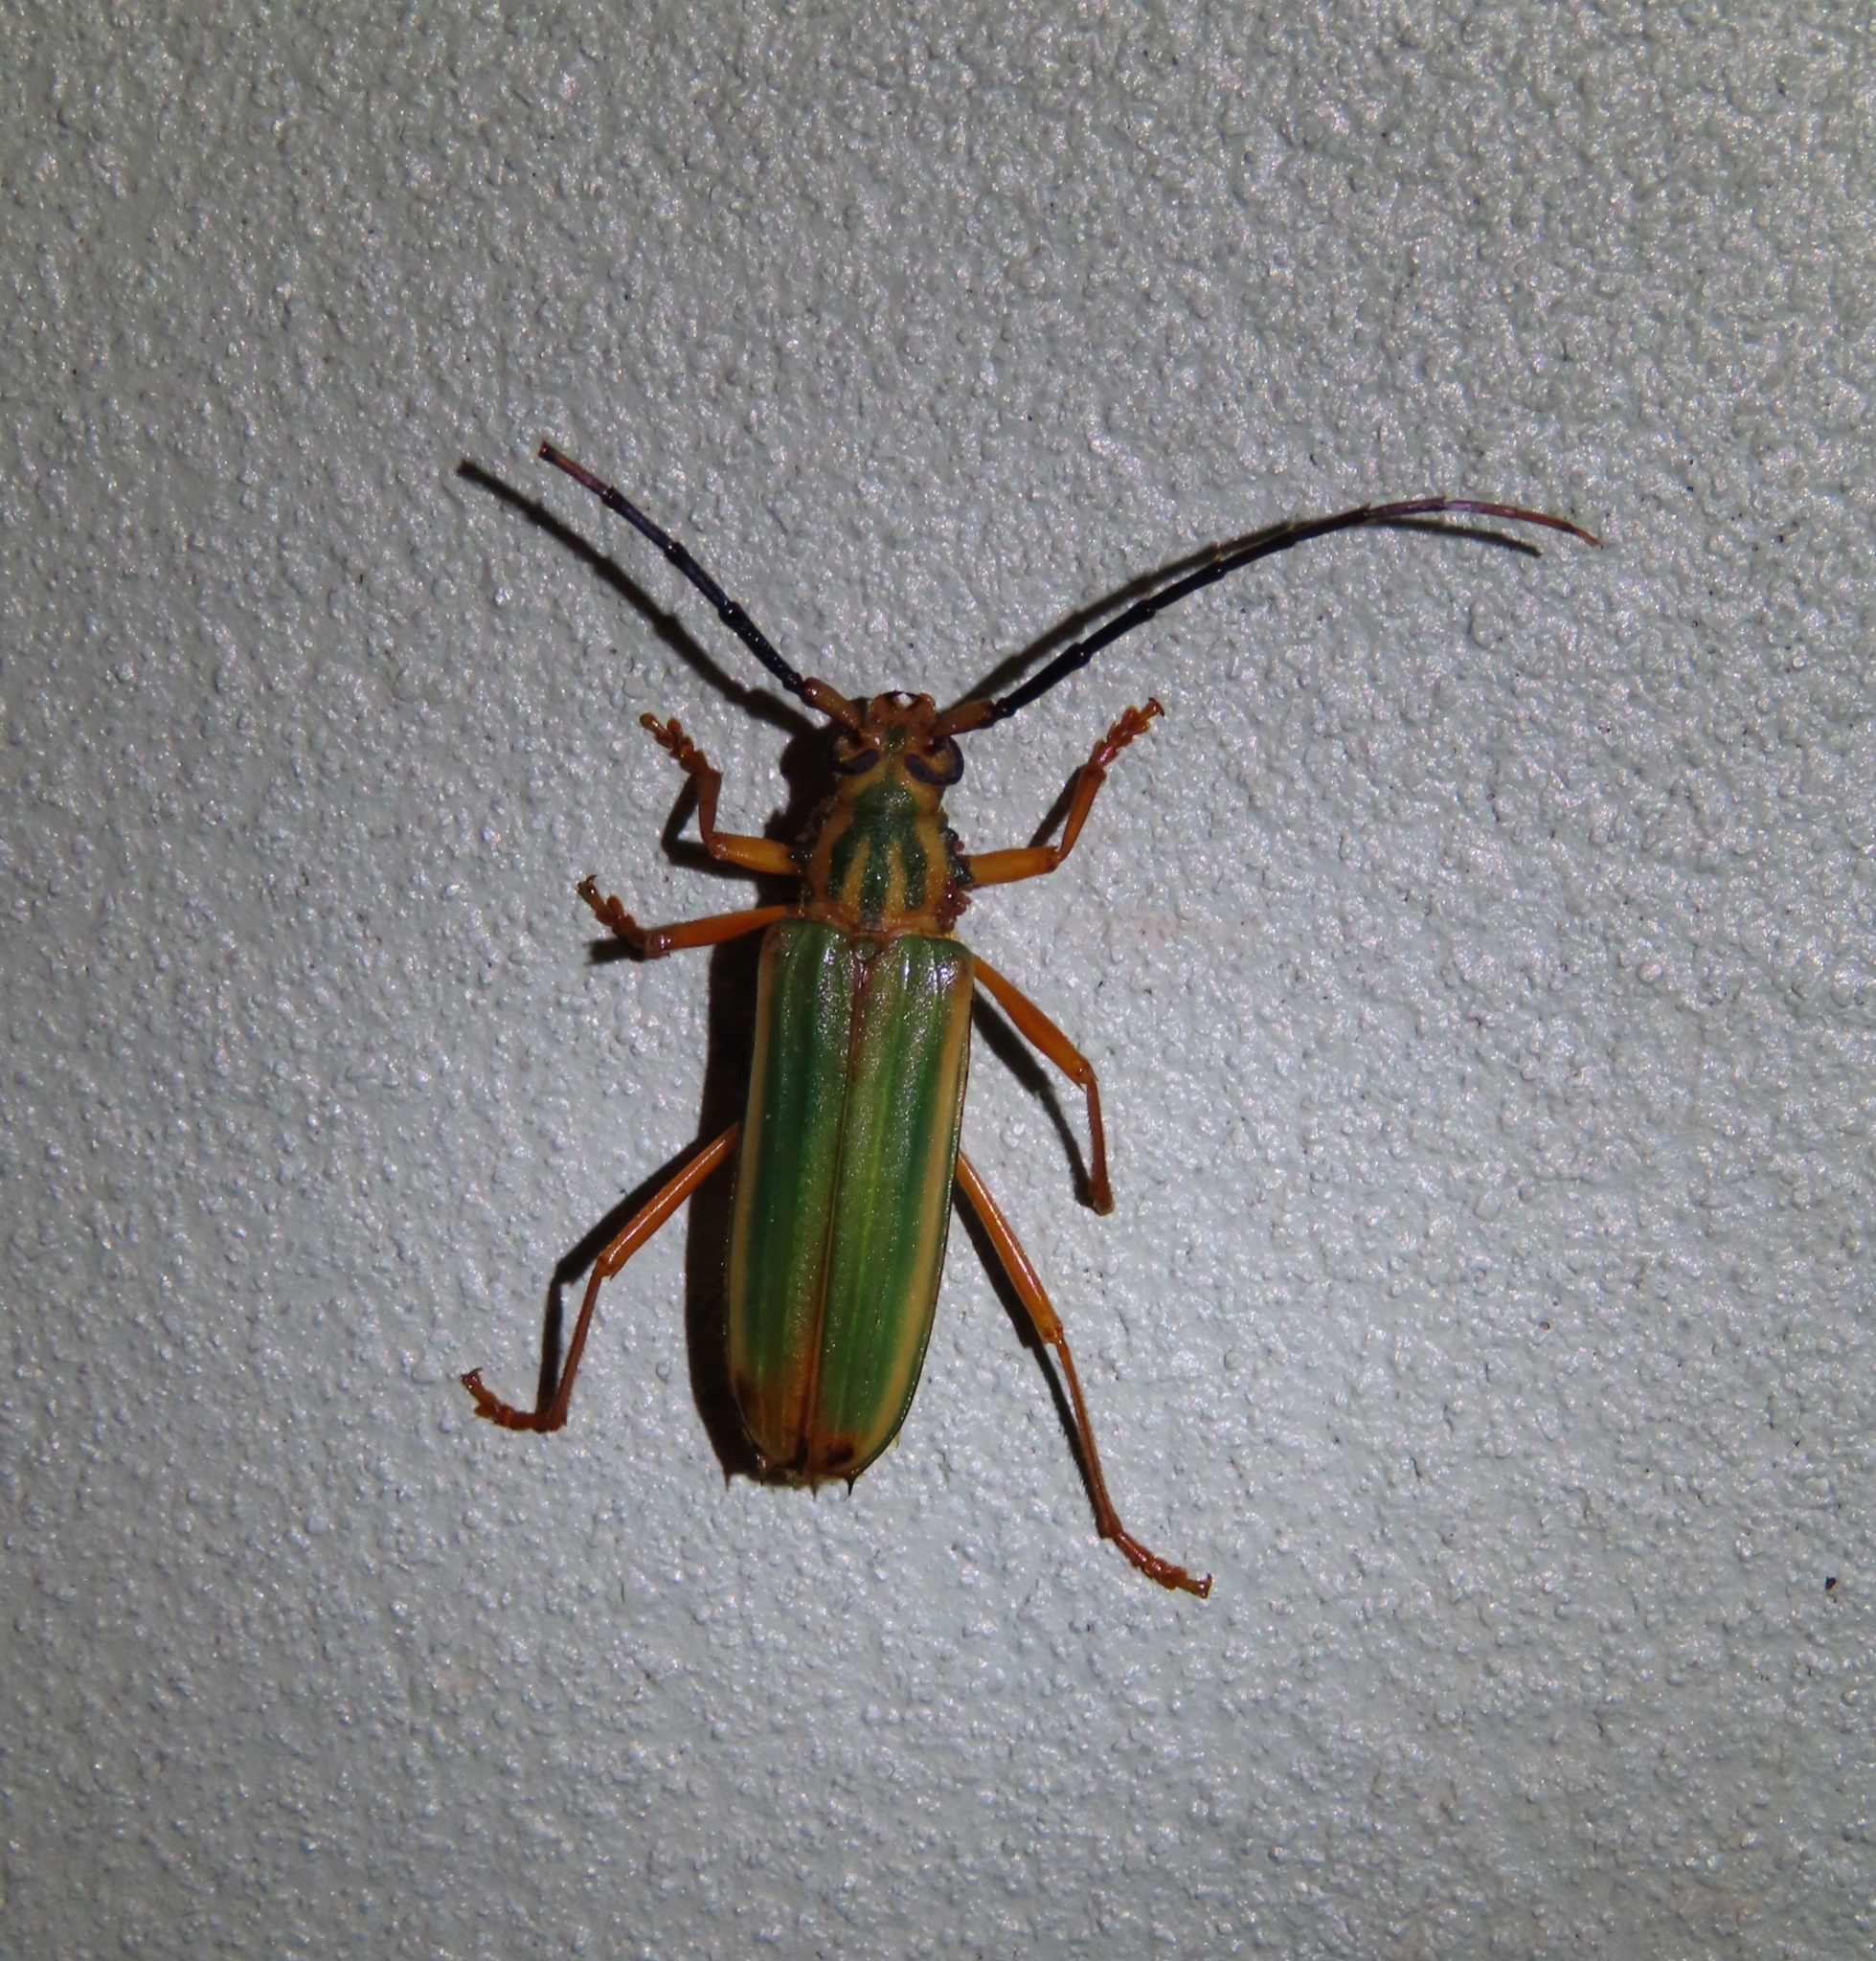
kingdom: Animalia
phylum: Arthropoda
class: Insecta
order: Coleoptera
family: Cerambycidae
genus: Chlorida
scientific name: Chlorida festiva
